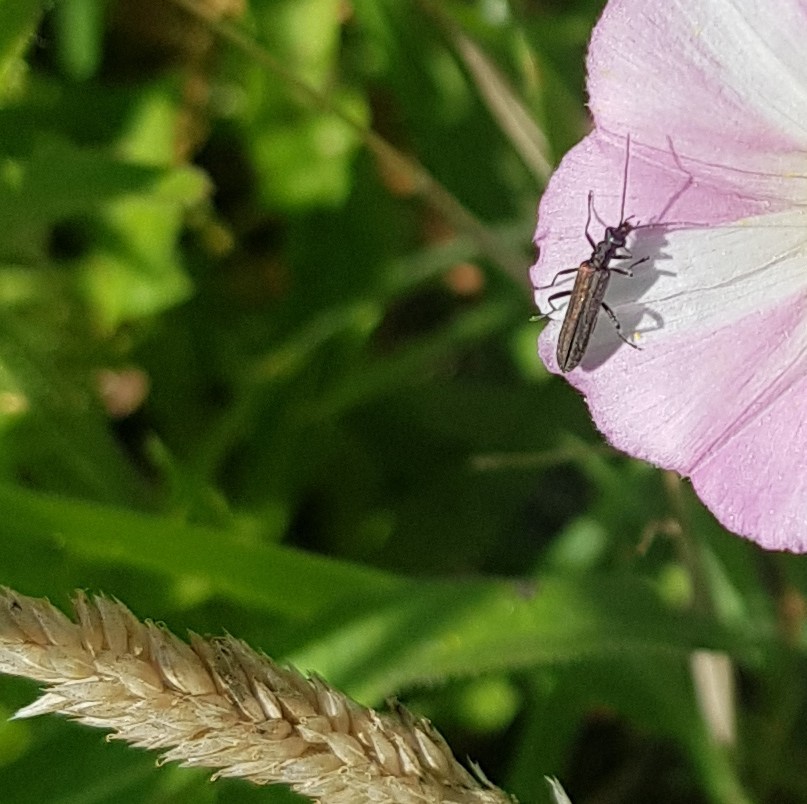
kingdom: Animalia
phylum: Arthropoda
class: Insecta
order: Coleoptera
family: Oedemeridae
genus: Oedemera
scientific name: Oedemera lurida
